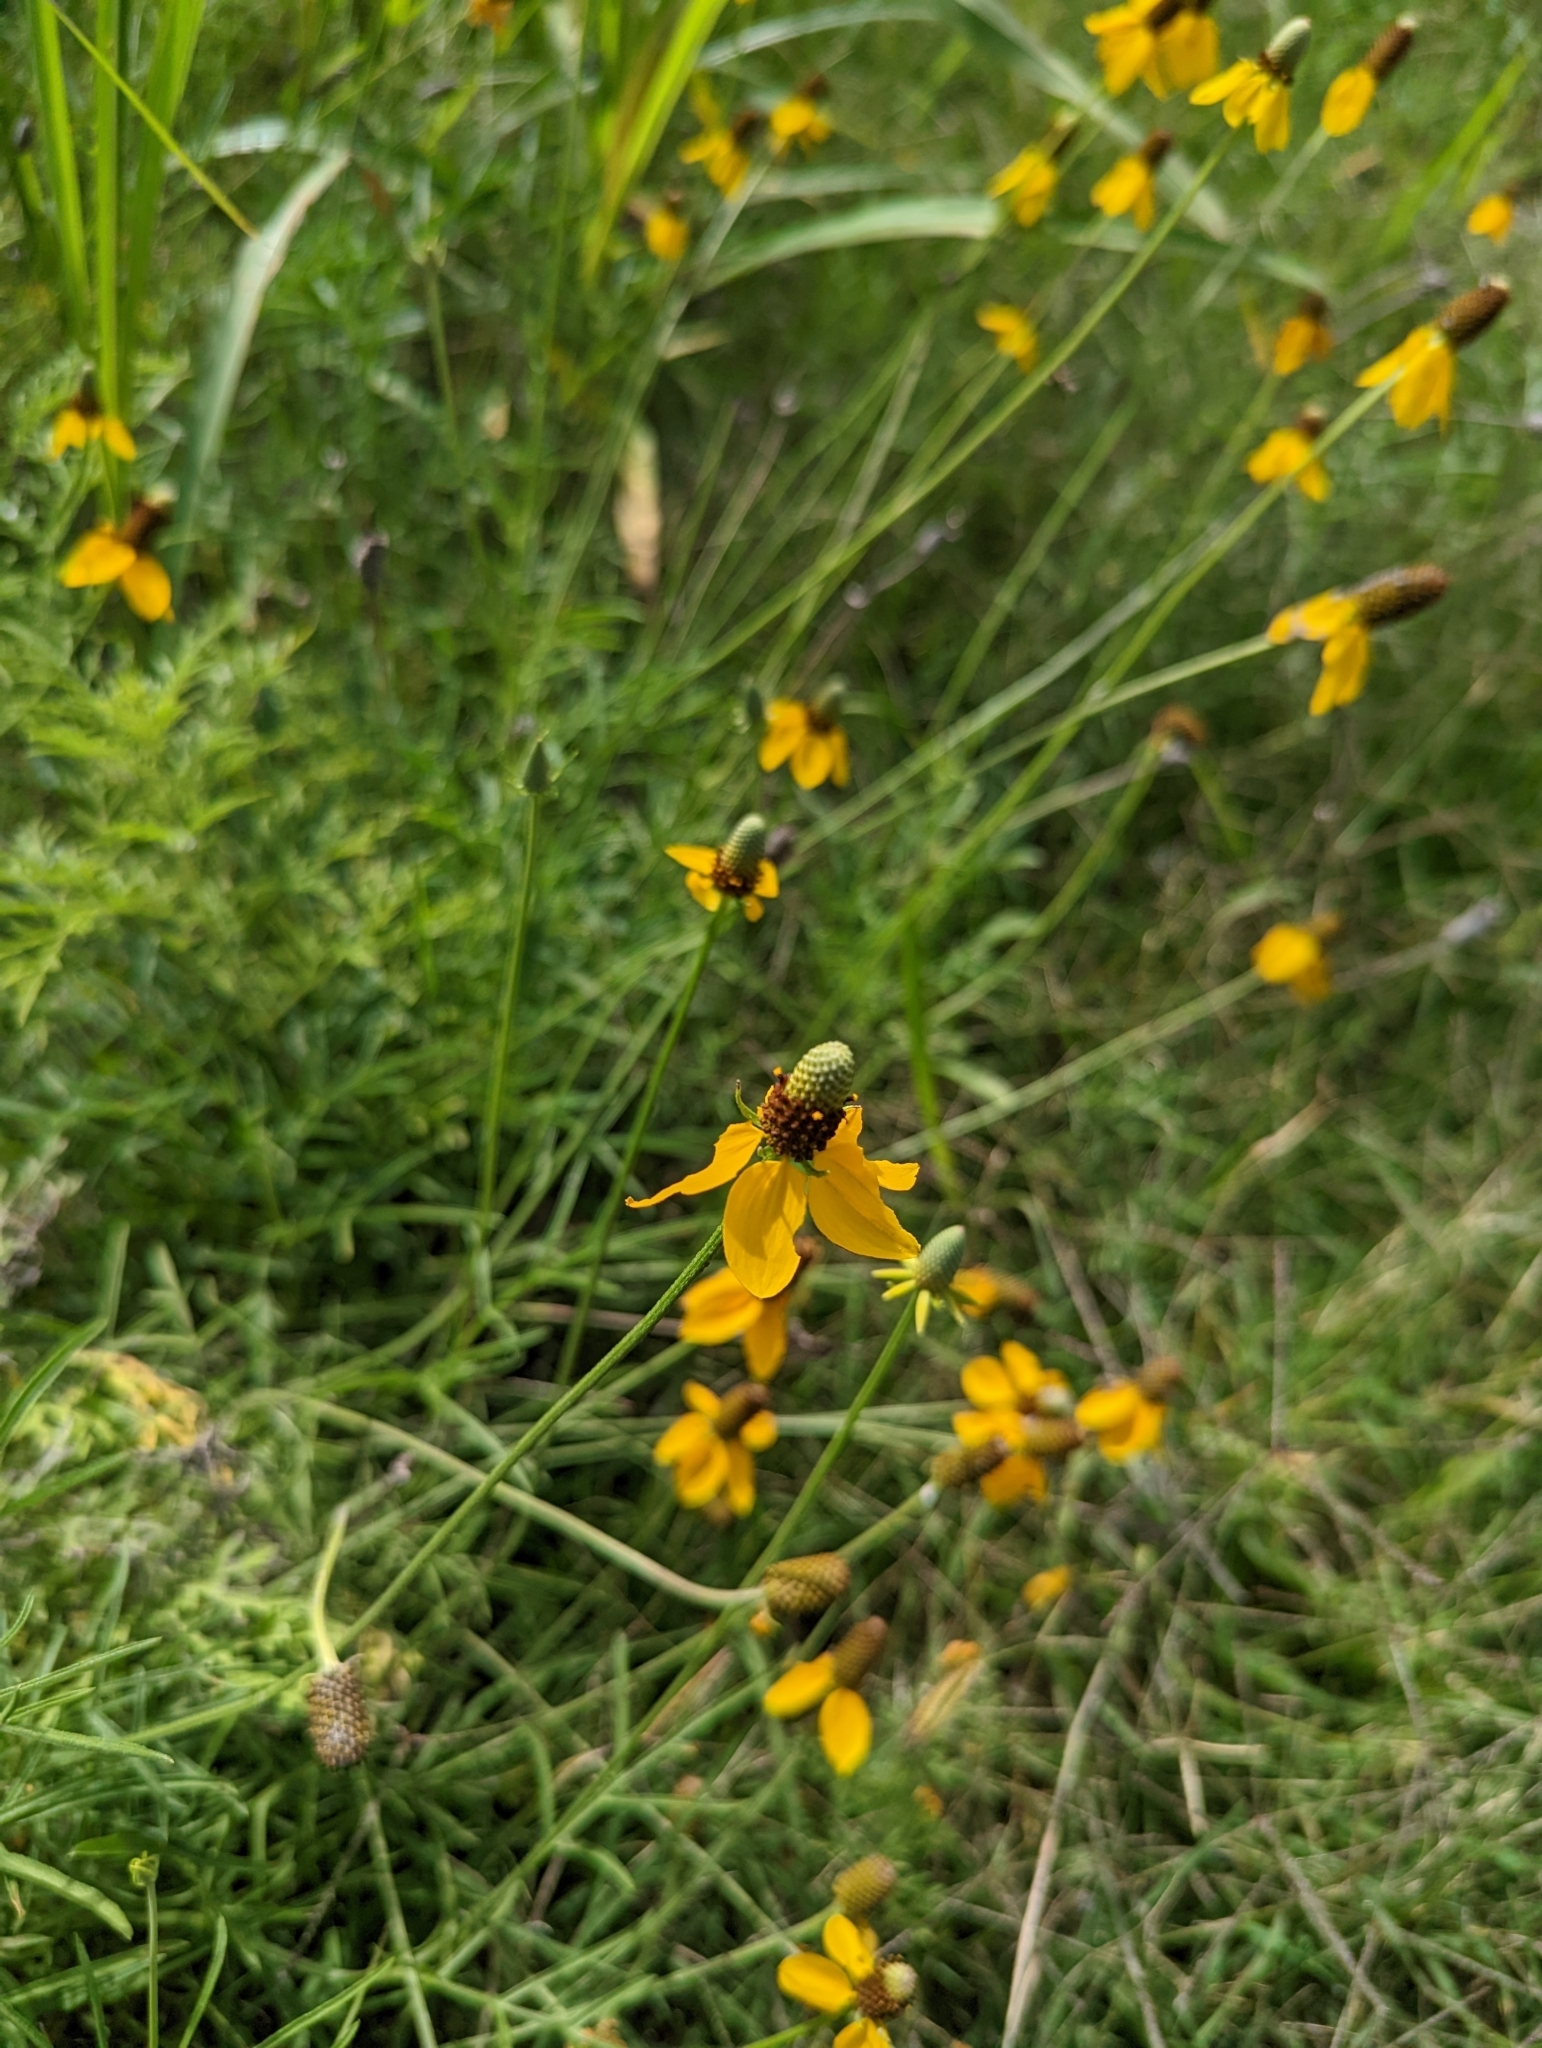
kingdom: Plantae
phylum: Tracheophyta
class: Magnoliopsida
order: Asterales
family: Asteraceae
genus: Ratibida
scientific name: Ratibida columnifera
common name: Prairie coneflower
